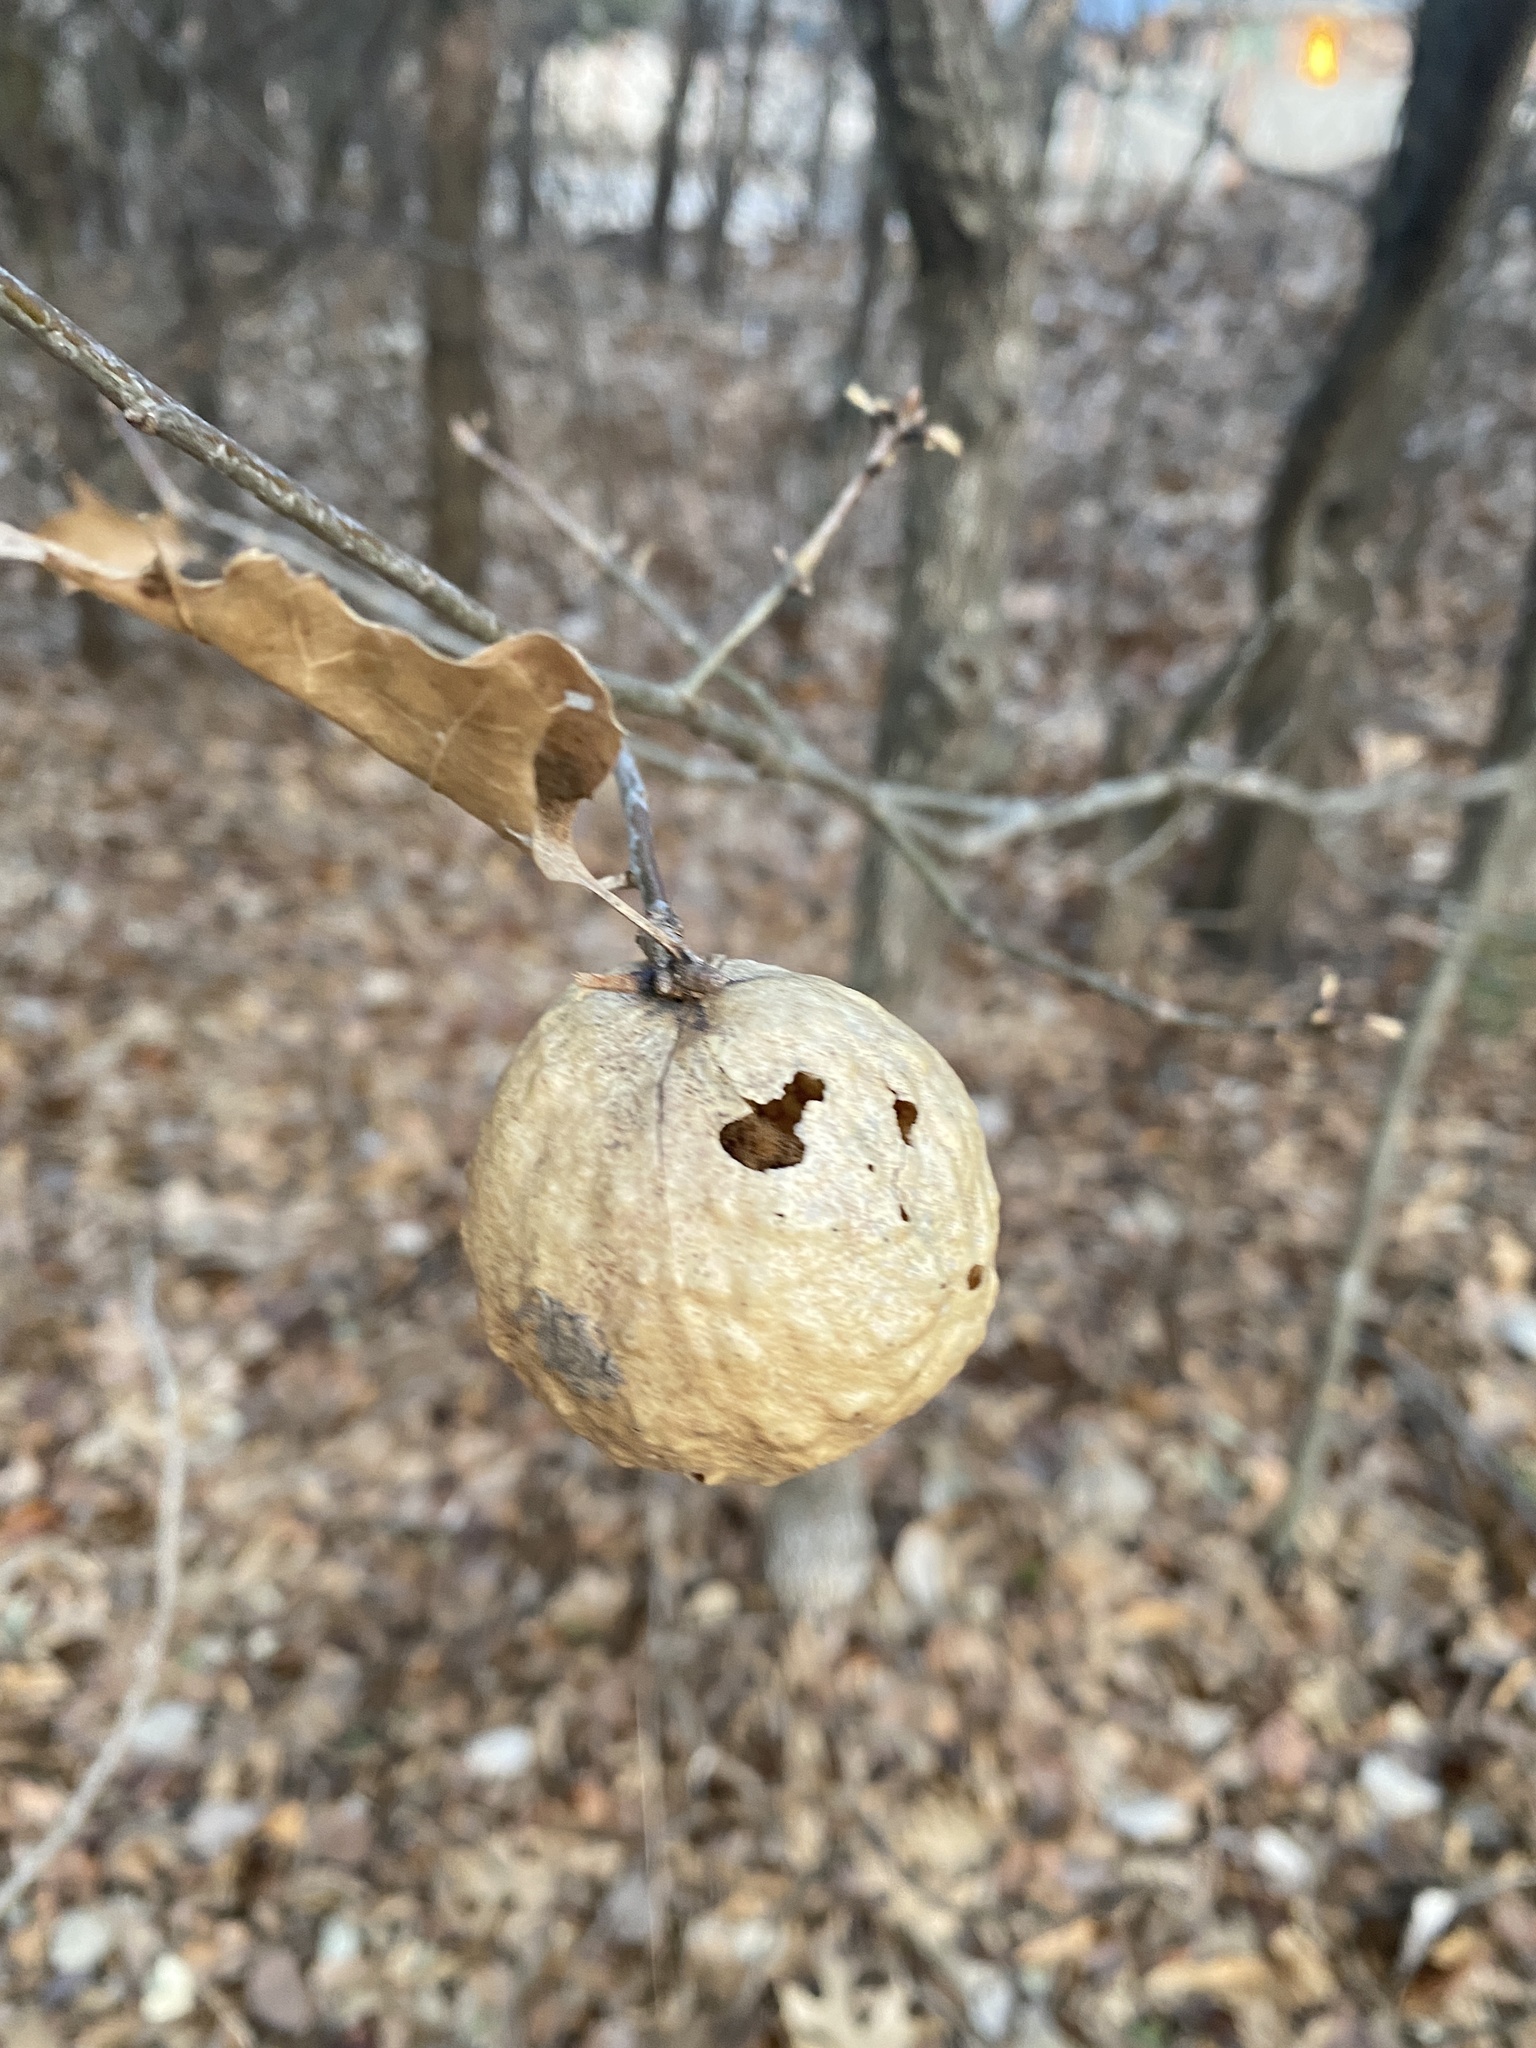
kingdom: Animalia
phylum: Arthropoda
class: Insecta
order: Hymenoptera
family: Cynipidae
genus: Amphibolips
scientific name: Amphibolips
